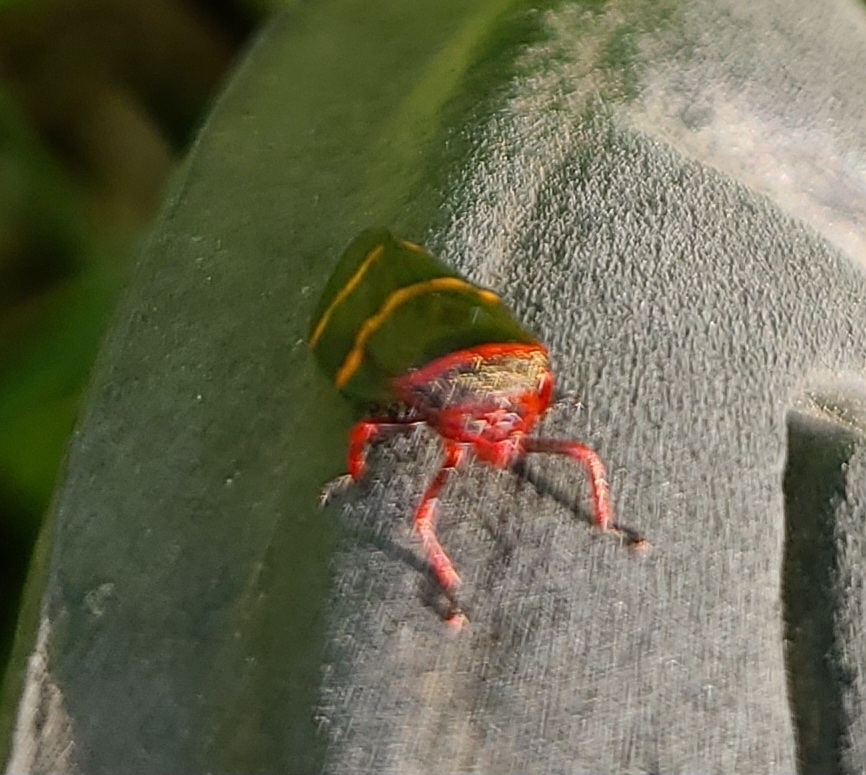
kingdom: Animalia
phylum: Arthropoda
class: Insecta
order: Hemiptera
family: Cercopidae
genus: Prosapia
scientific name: Prosapia bicincta
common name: Twolined spittlebug
